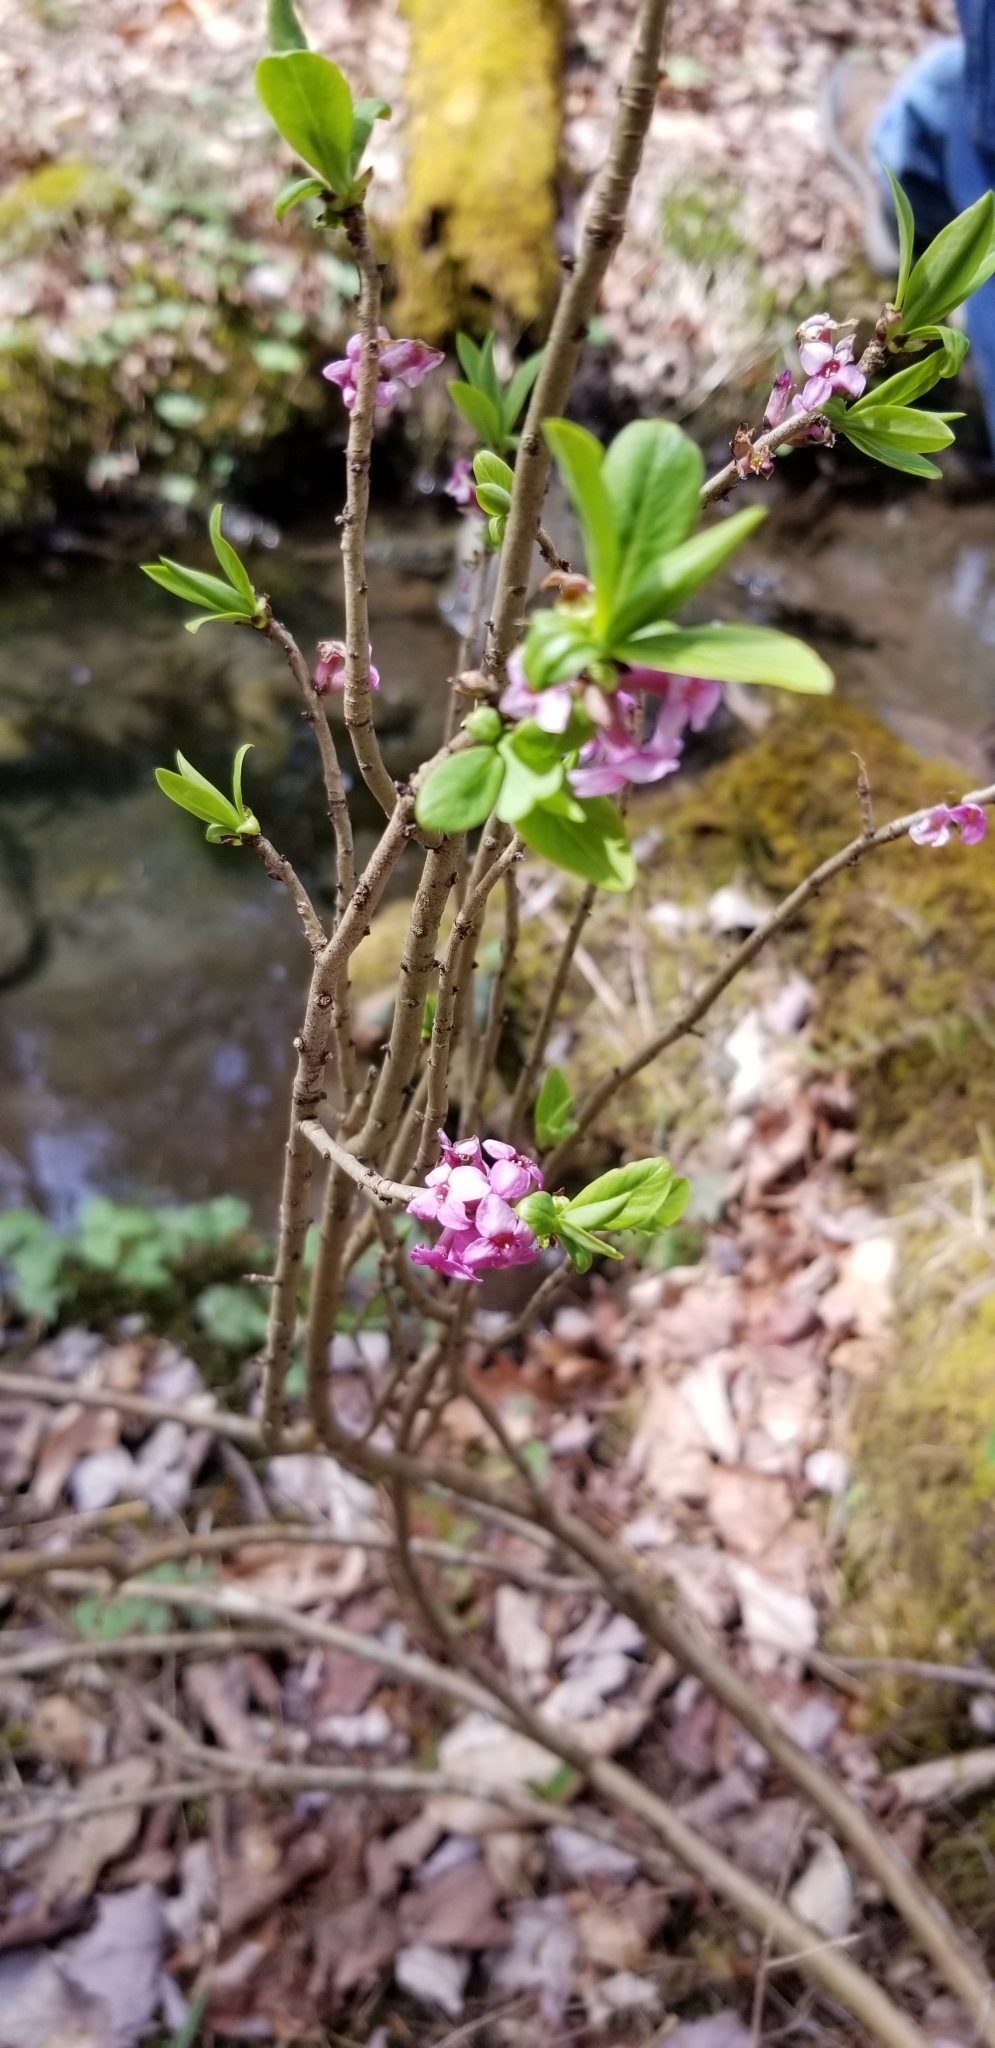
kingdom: Plantae
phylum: Tracheophyta
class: Magnoliopsida
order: Malvales
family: Thymelaeaceae
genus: Daphne
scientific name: Daphne mezereum
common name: Mezereon
